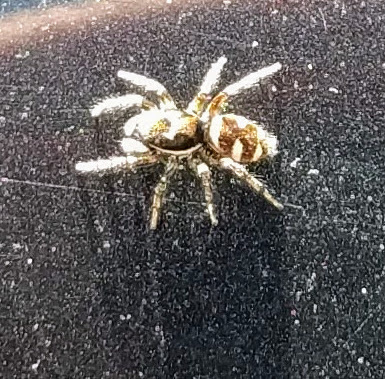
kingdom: Animalia
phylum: Arthropoda
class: Arachnida
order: Araneae
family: Salticidae
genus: Salticus
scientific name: Salticus scenicus
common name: Zebra jumper
